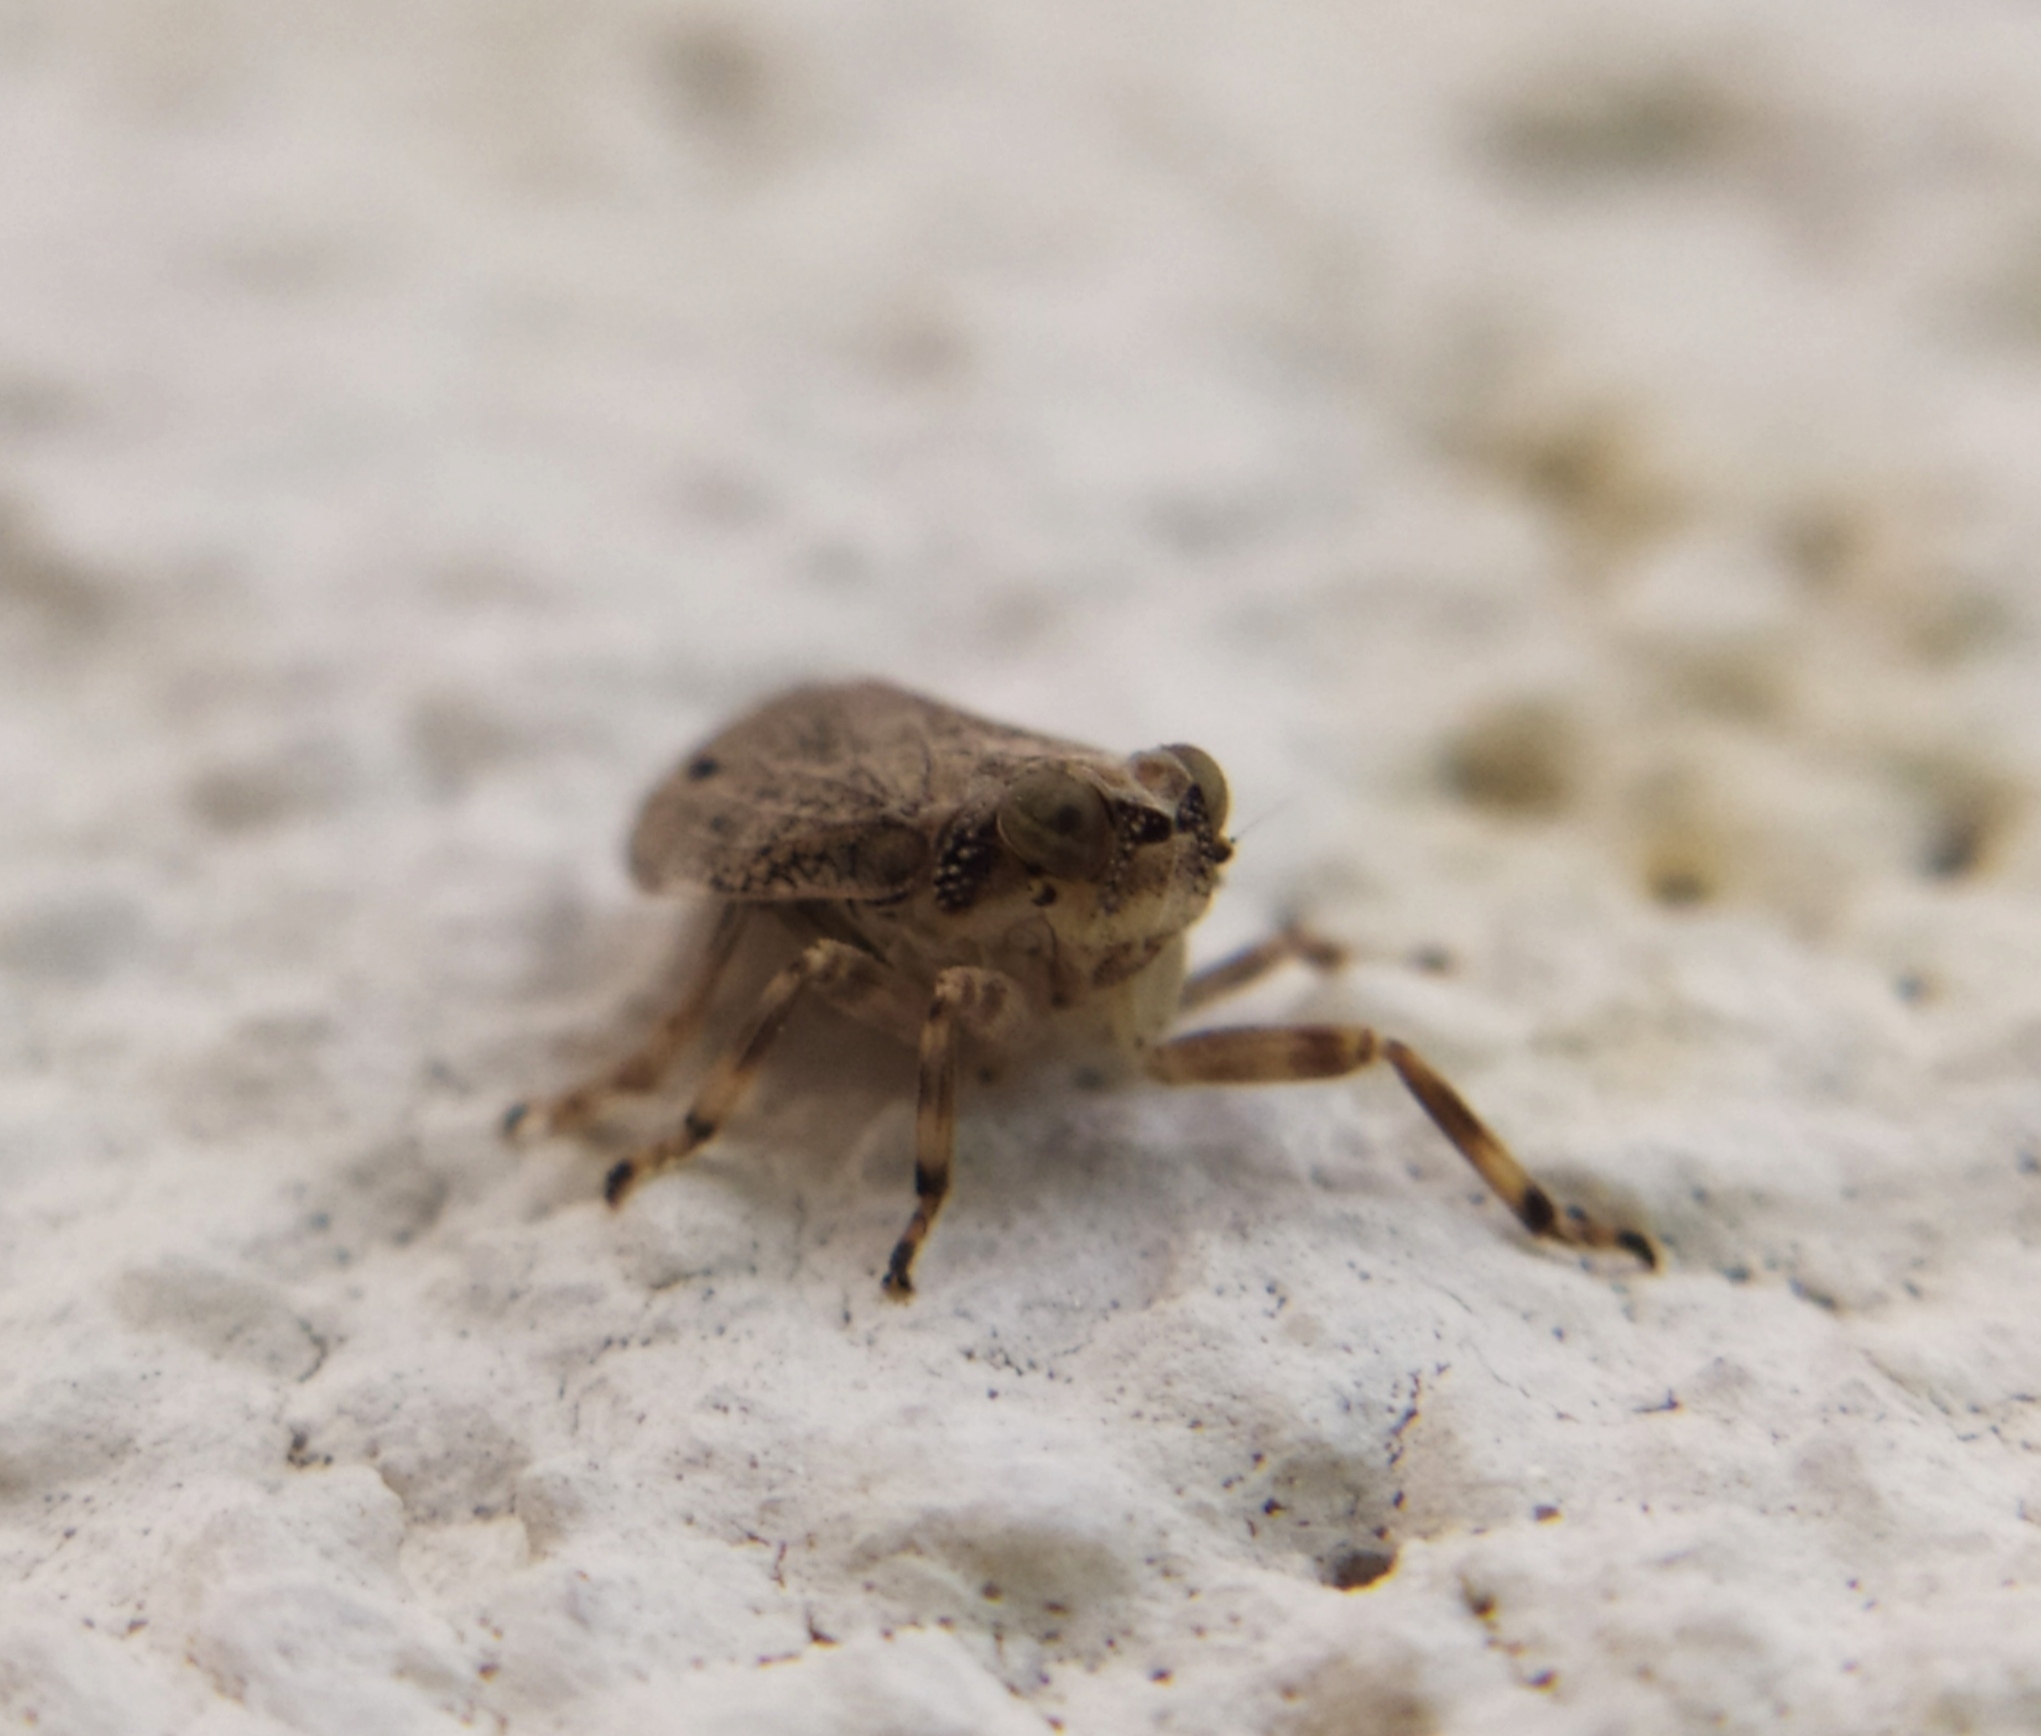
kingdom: Animalia
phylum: Arthropoda
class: Insecta
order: Hemiptera
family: Issidae
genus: Issus
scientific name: Issus coleoptratus
